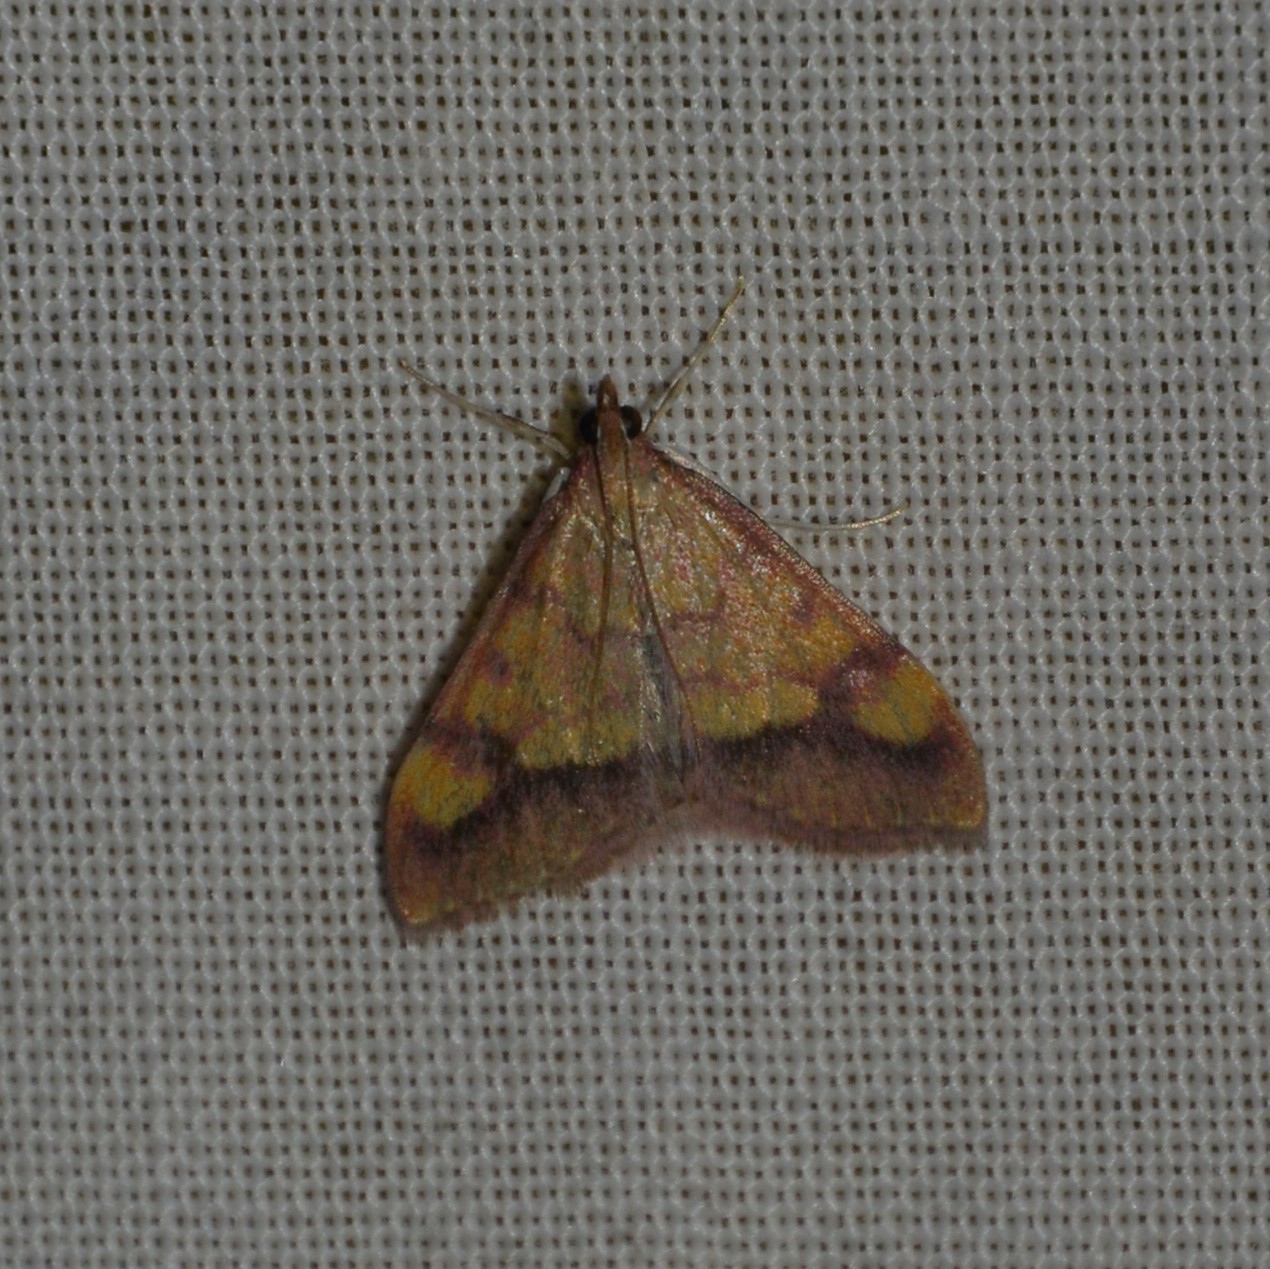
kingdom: Animalia
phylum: Arthropoda
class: Insecta
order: Lepidoptera
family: Crambidae
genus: Pyrausta
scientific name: Pyrausta perrubralis
